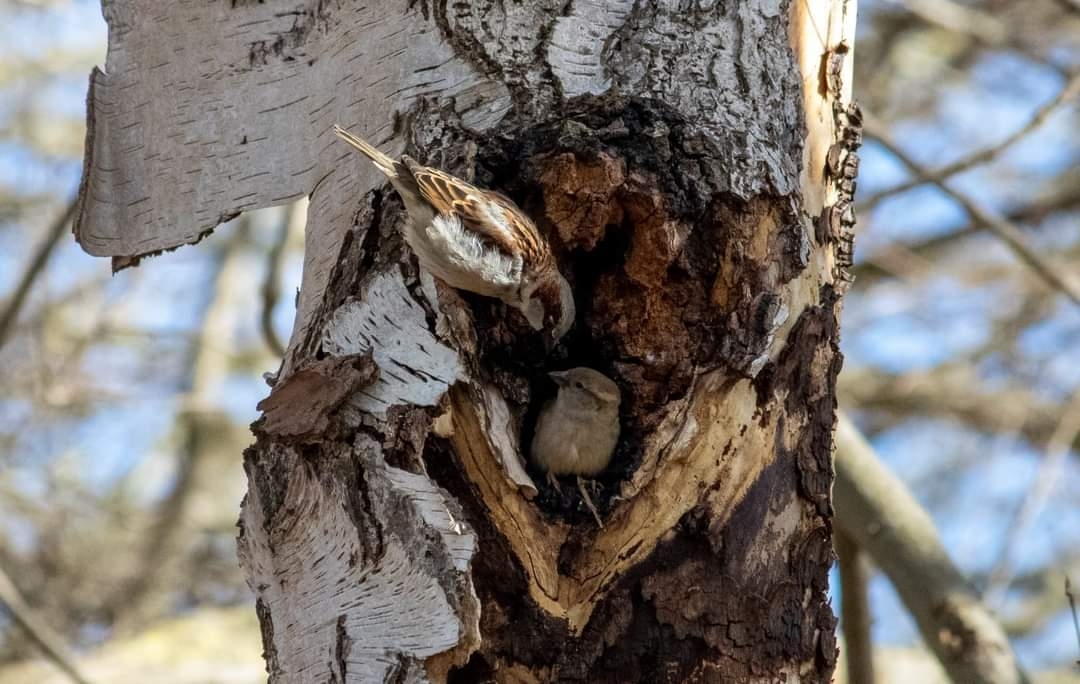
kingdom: Animalia
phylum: Chordata
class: Aves
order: Passeriformes
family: Passeridae
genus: Passer
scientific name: Passer domesticus
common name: House sparrow
